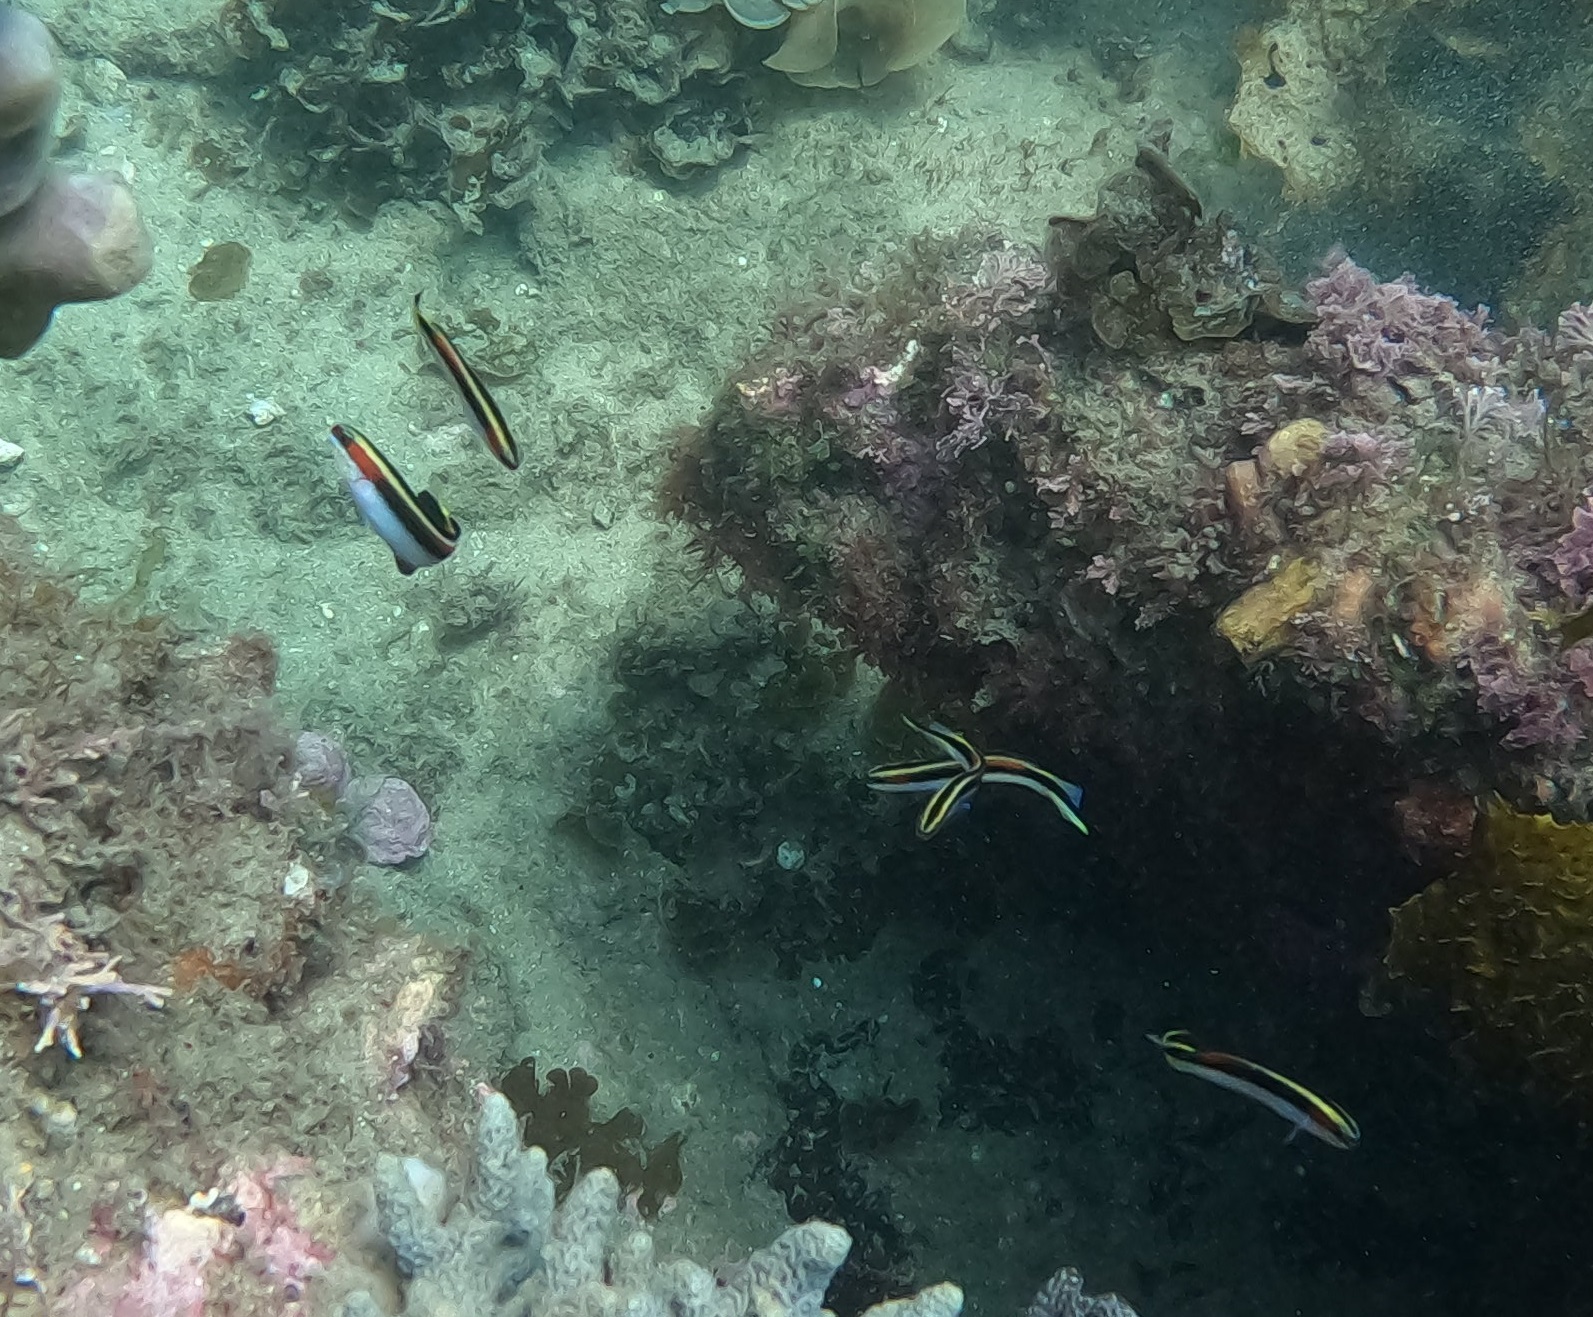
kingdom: Animalia
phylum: Chordata
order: Perciformes
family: Plesiopidae
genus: Trachinops
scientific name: Trachinops taeniatus
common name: Eastern hulafish
